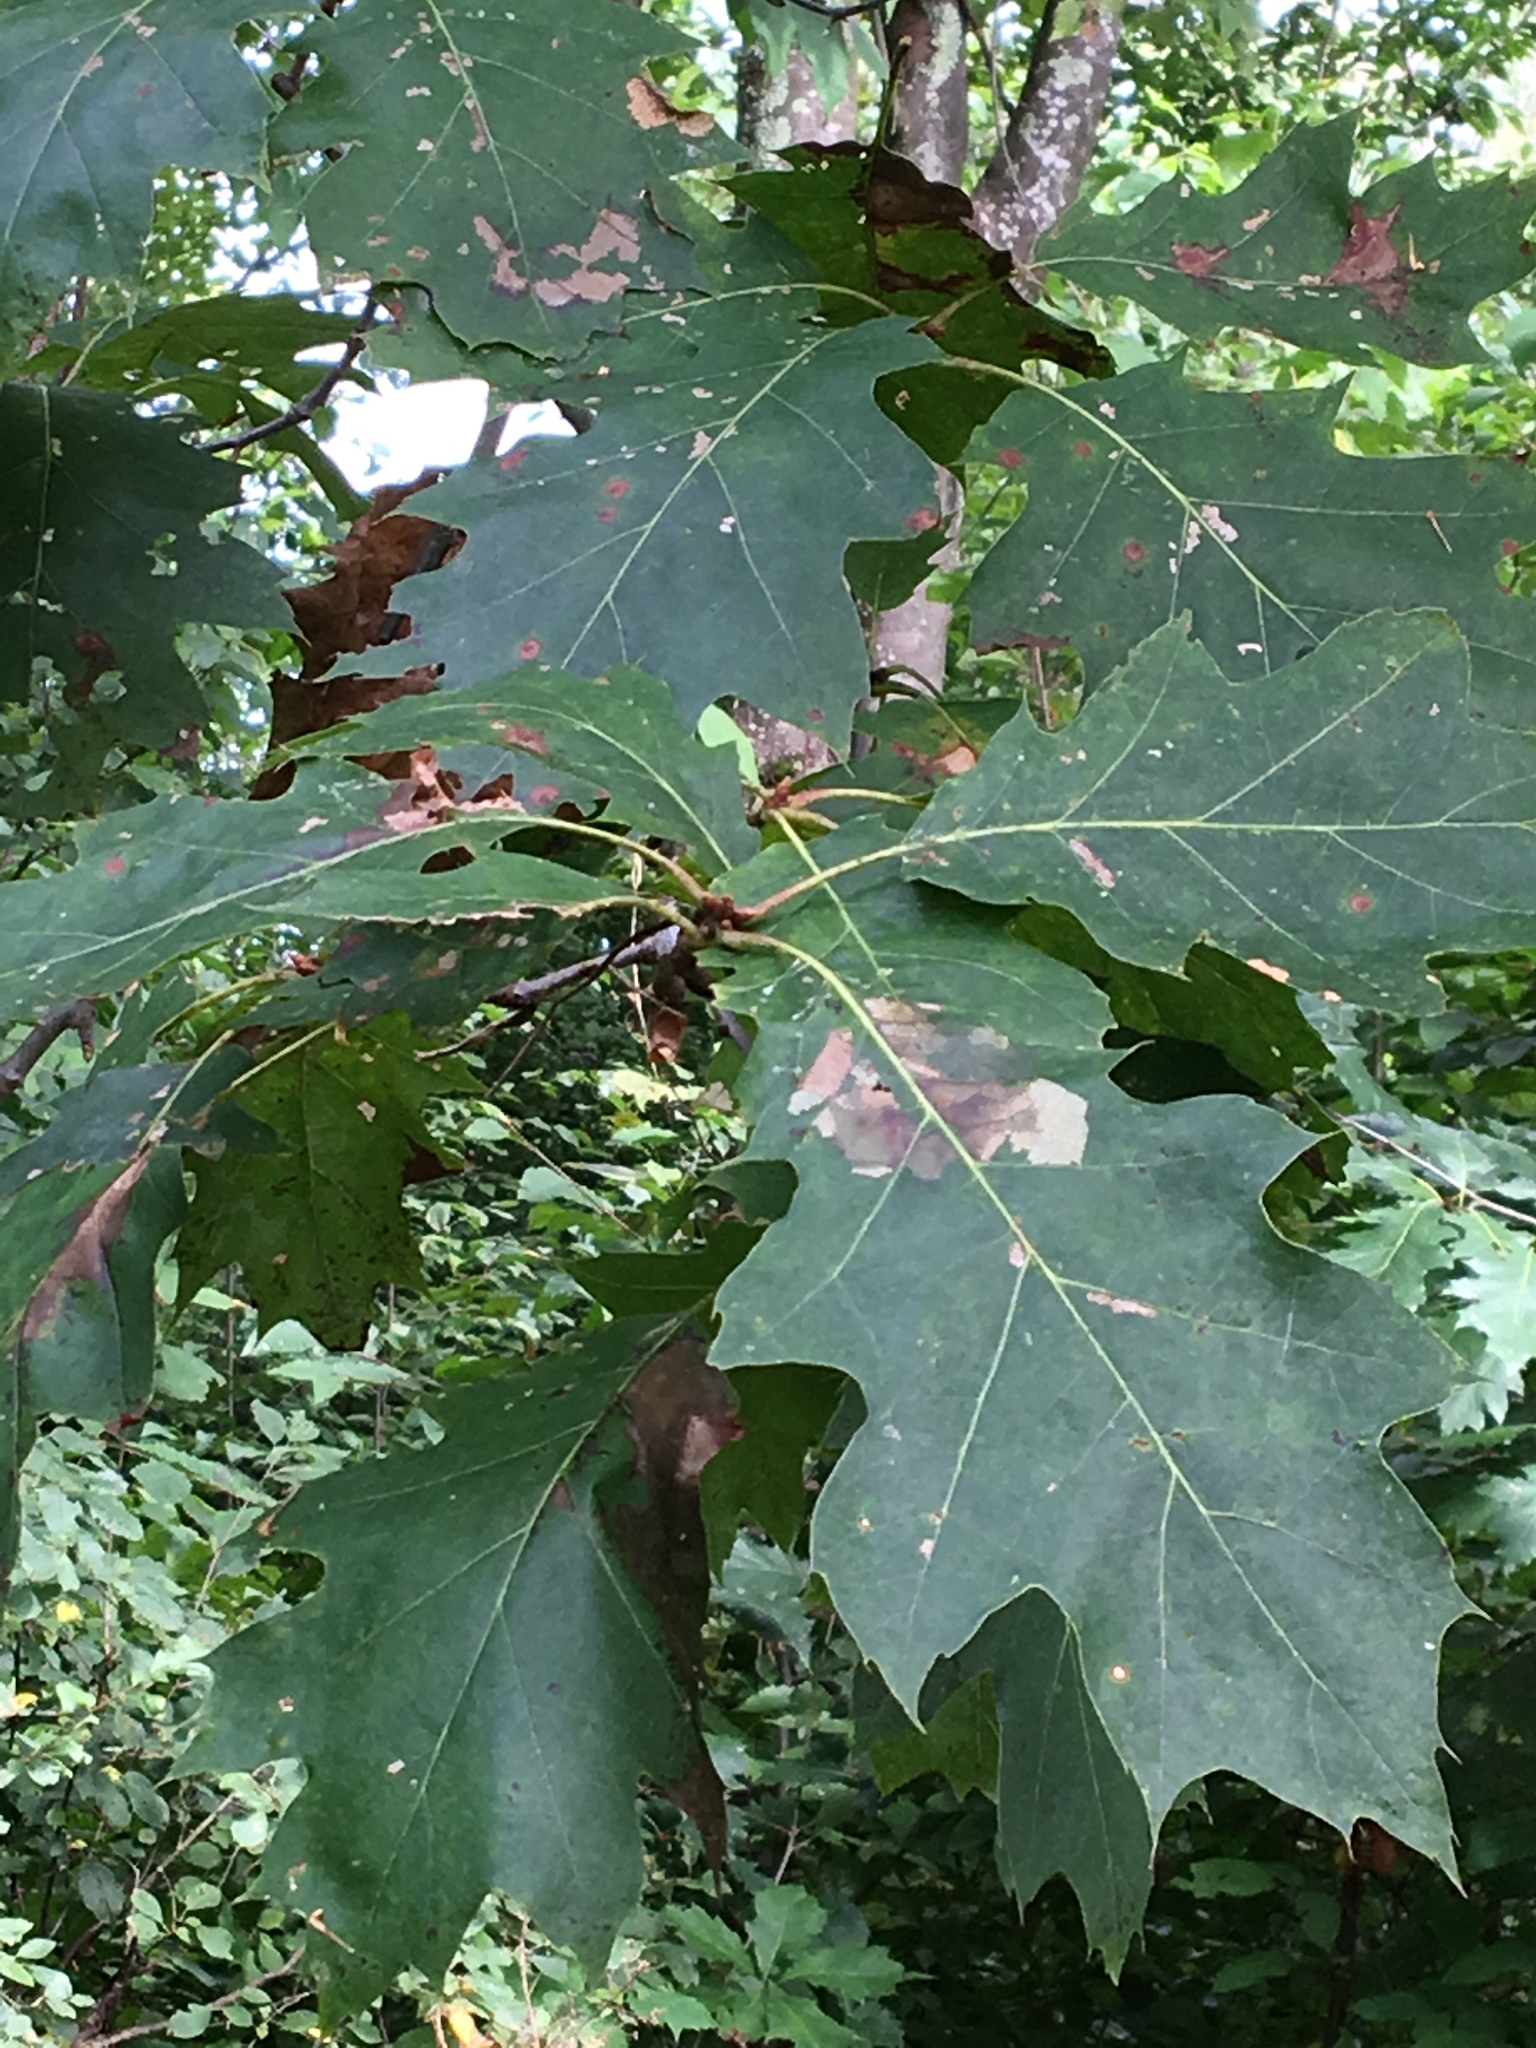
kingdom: Plantae
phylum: Tracheophyta
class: Magnoliopsida
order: Fagales
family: Fagaceae
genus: Quercus
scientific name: Quercus rubra
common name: Red oak
